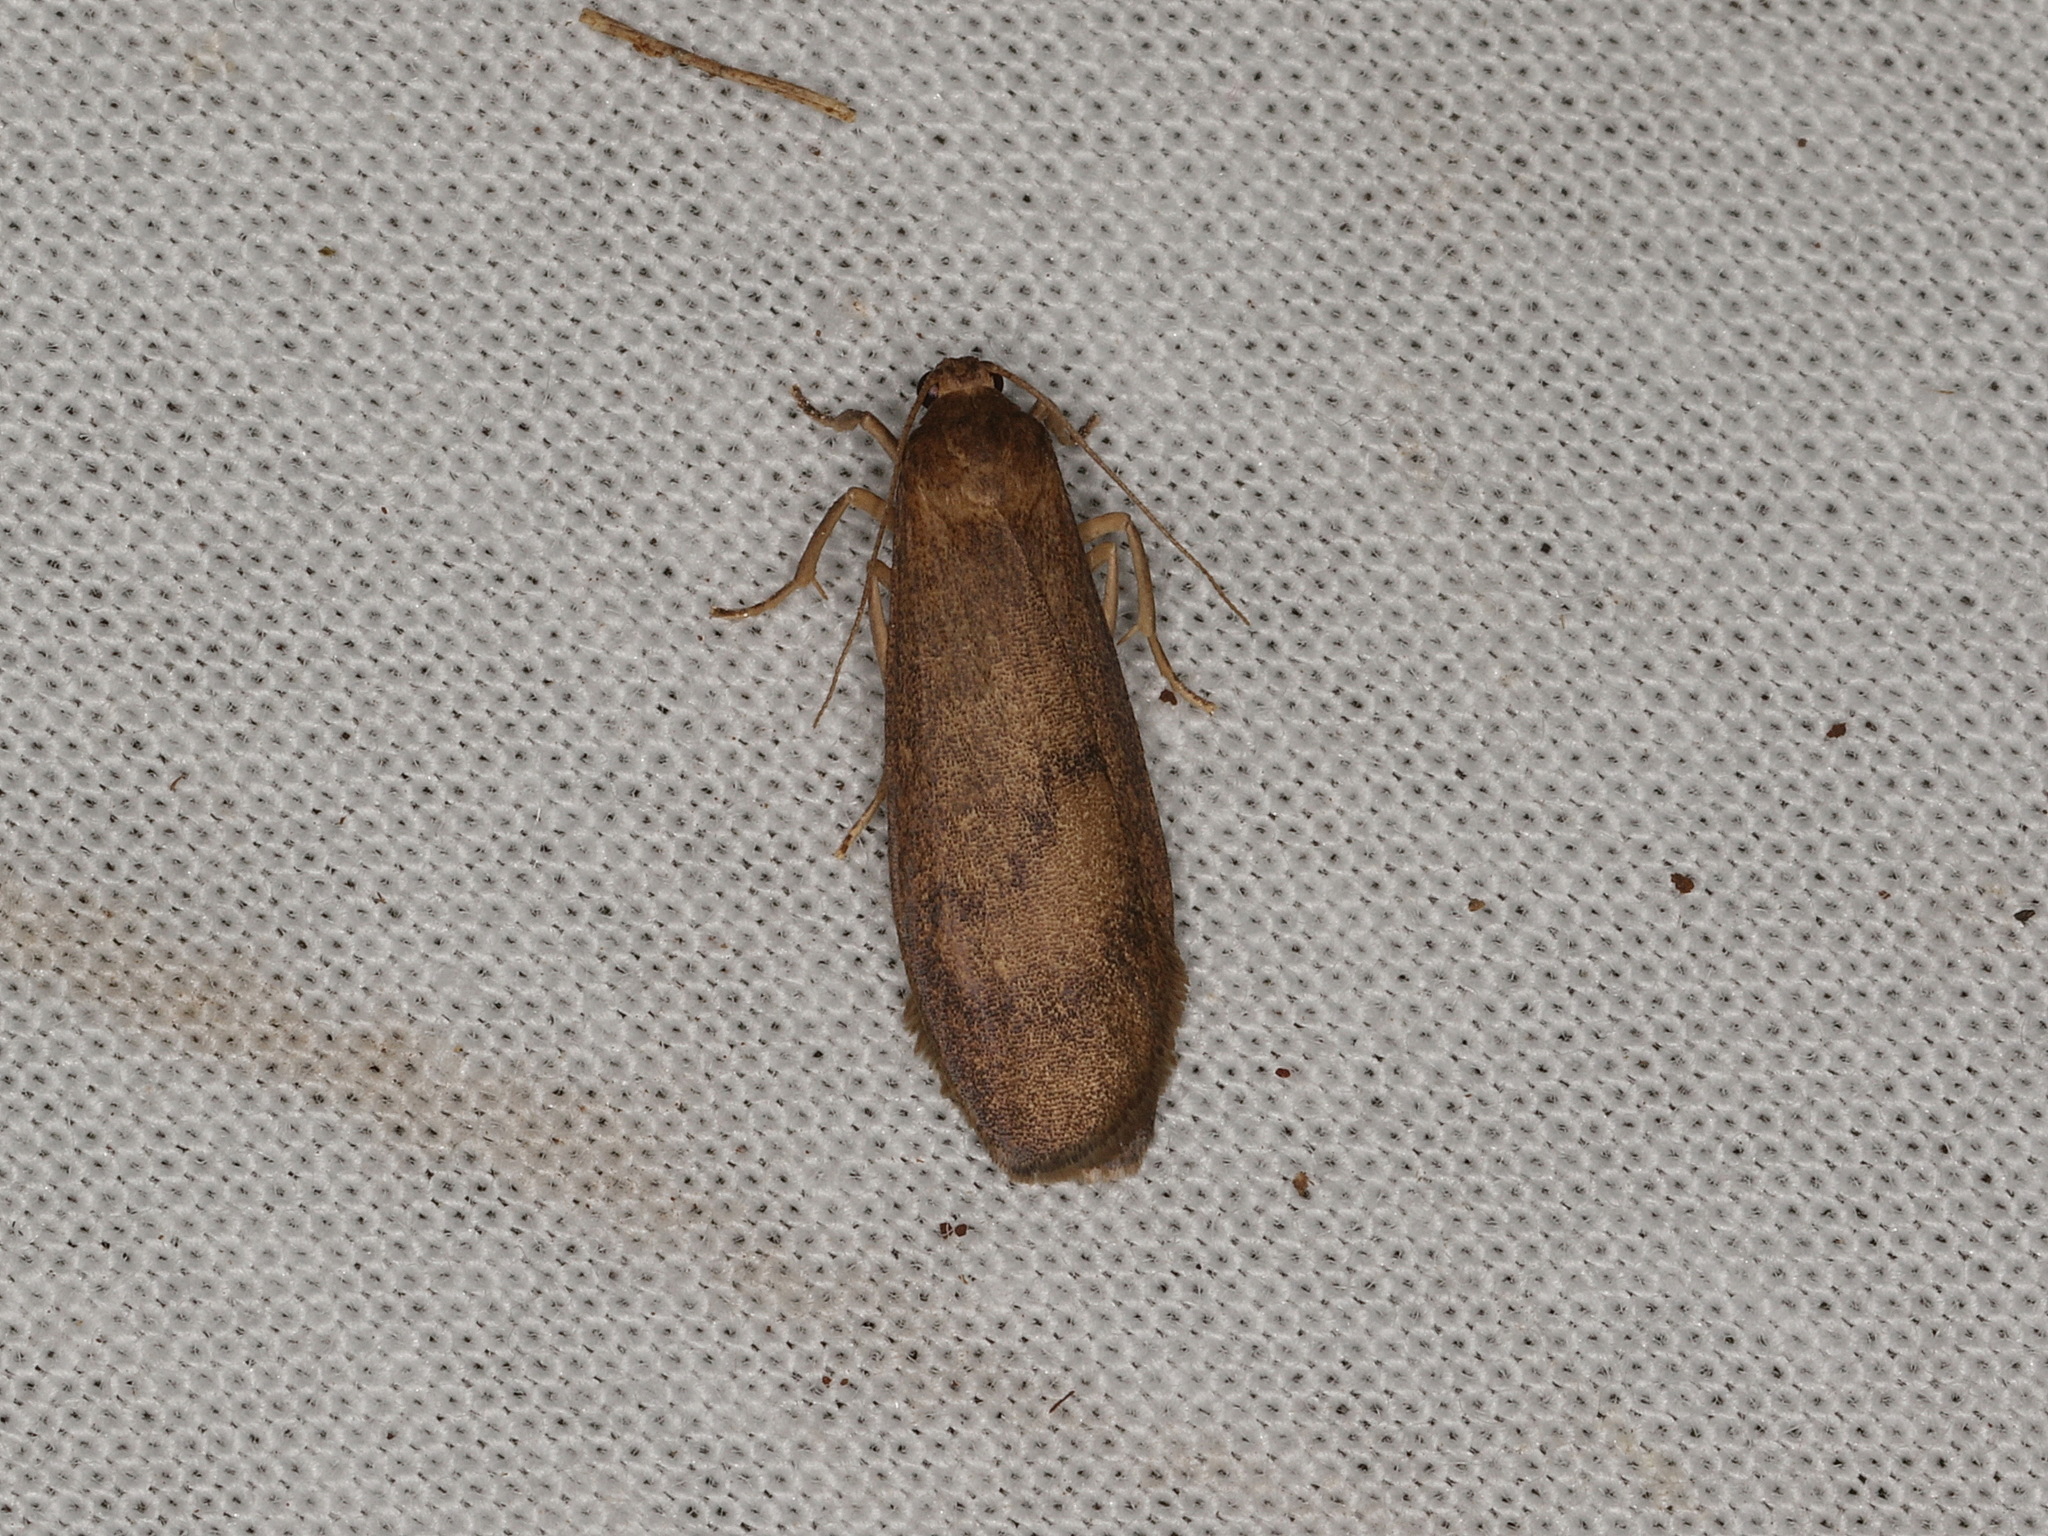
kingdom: Animalia
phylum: Arthropoda
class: Insecta
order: Lepidoptera
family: Erebidae
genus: Lambula
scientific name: Lambula obliquilinea
